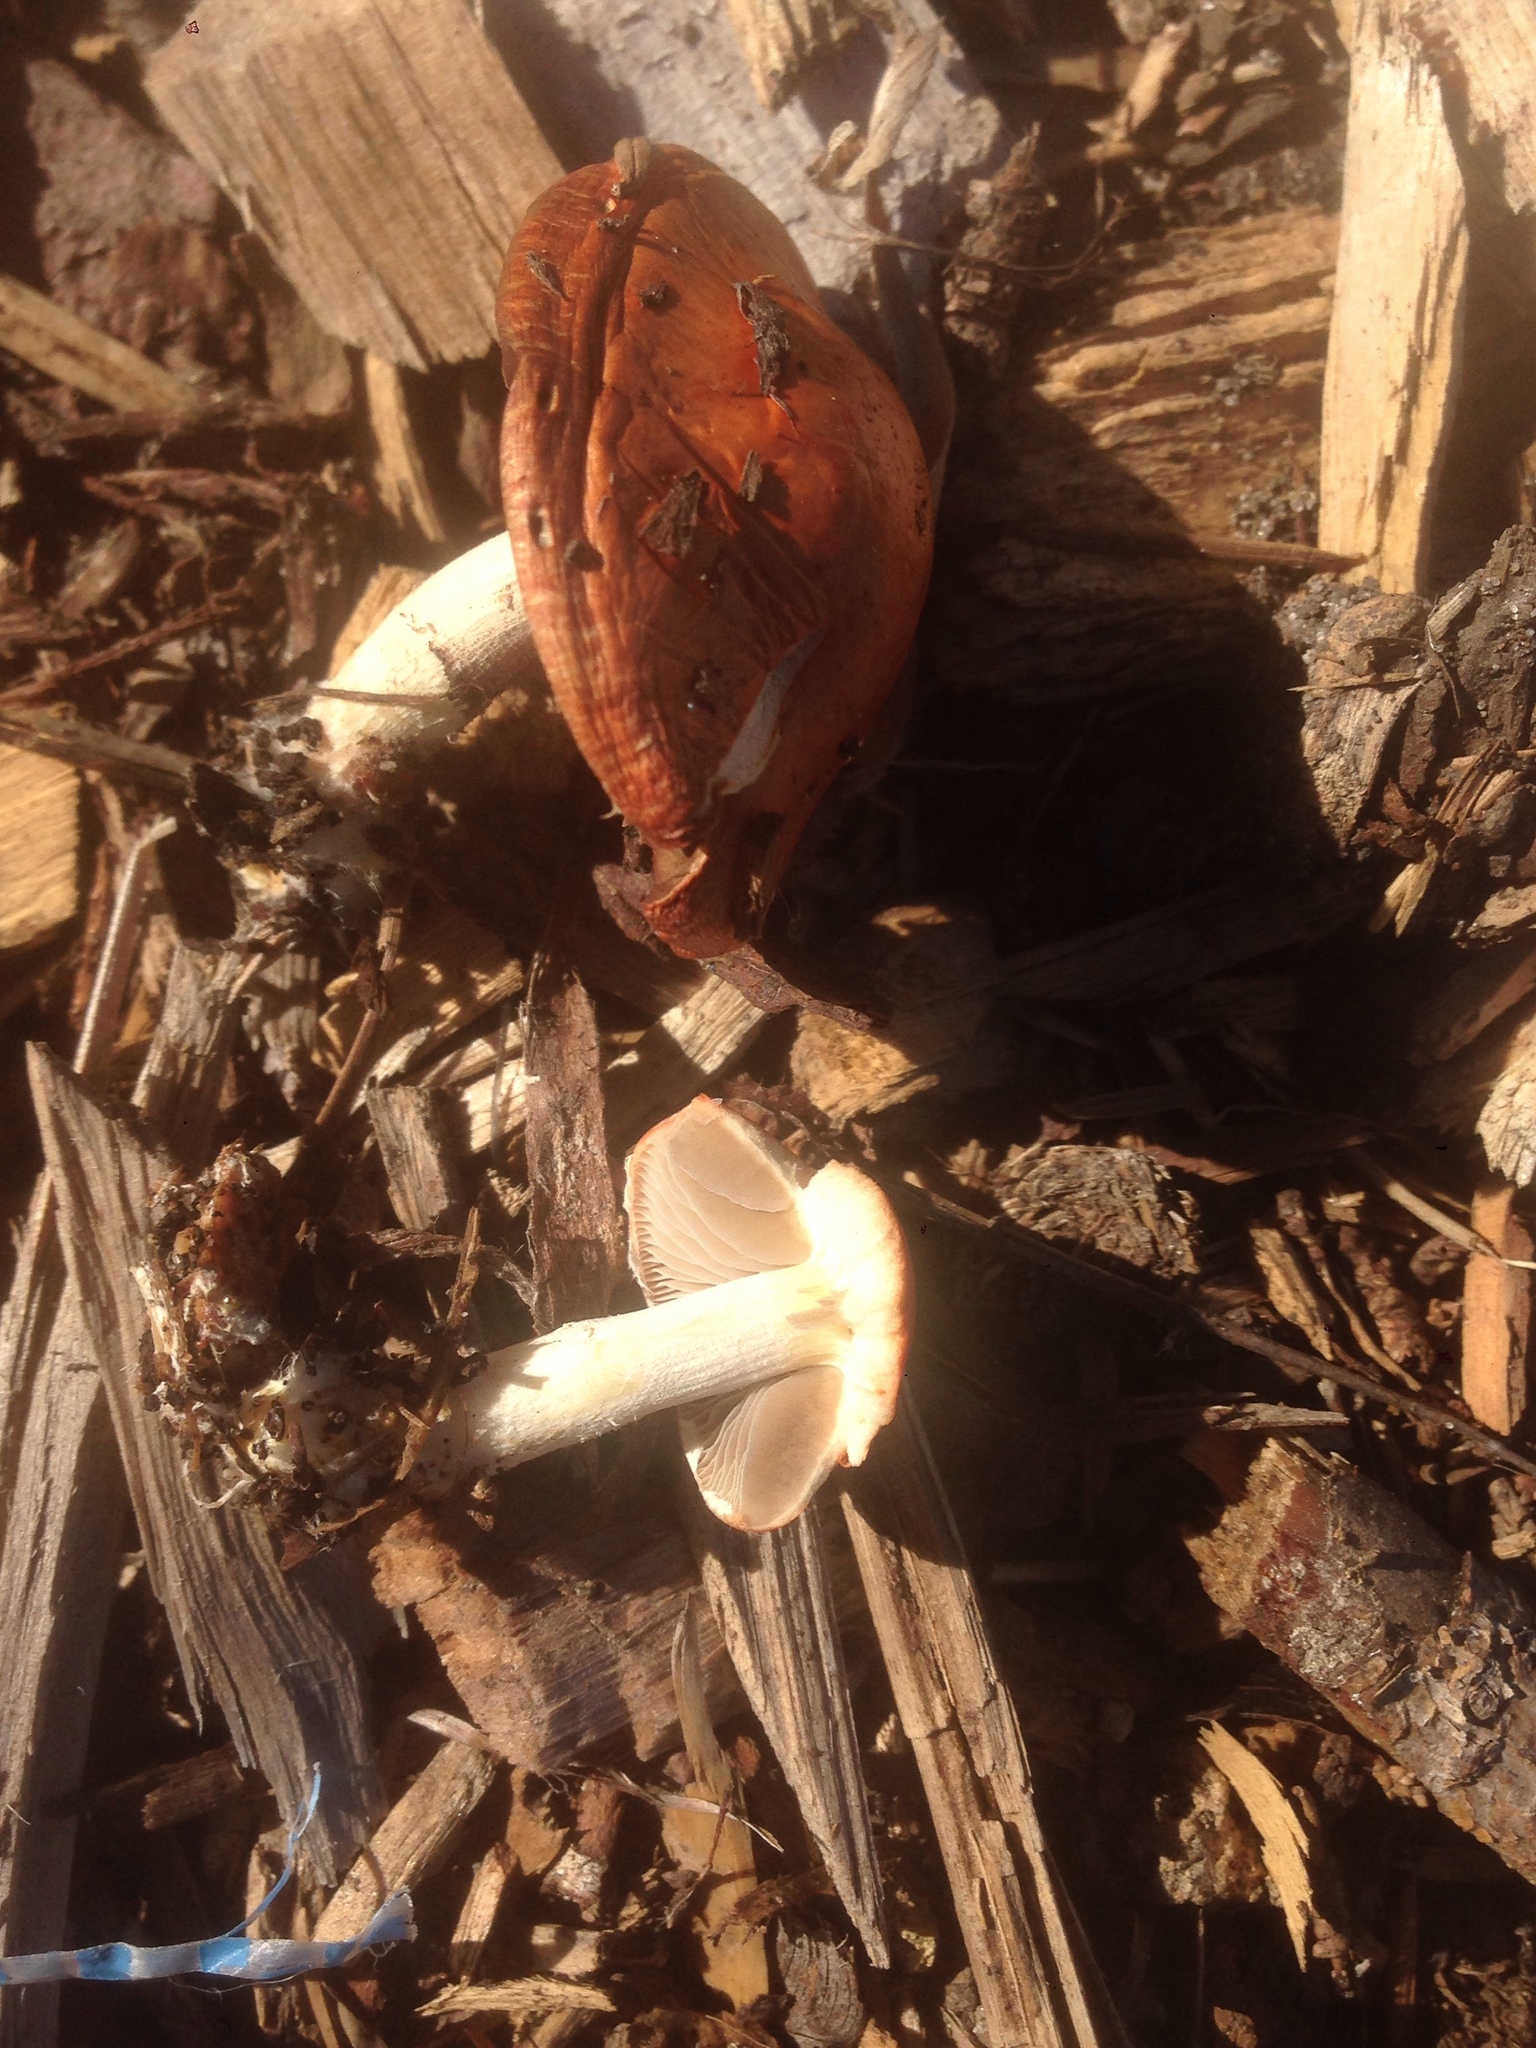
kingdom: Fungi
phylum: Basidiomycota
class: Agaricomycetes
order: Agaricales
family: Strophariaceae
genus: Leratiomyces
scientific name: Leratiomyces ceres
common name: Redlead roundhead
